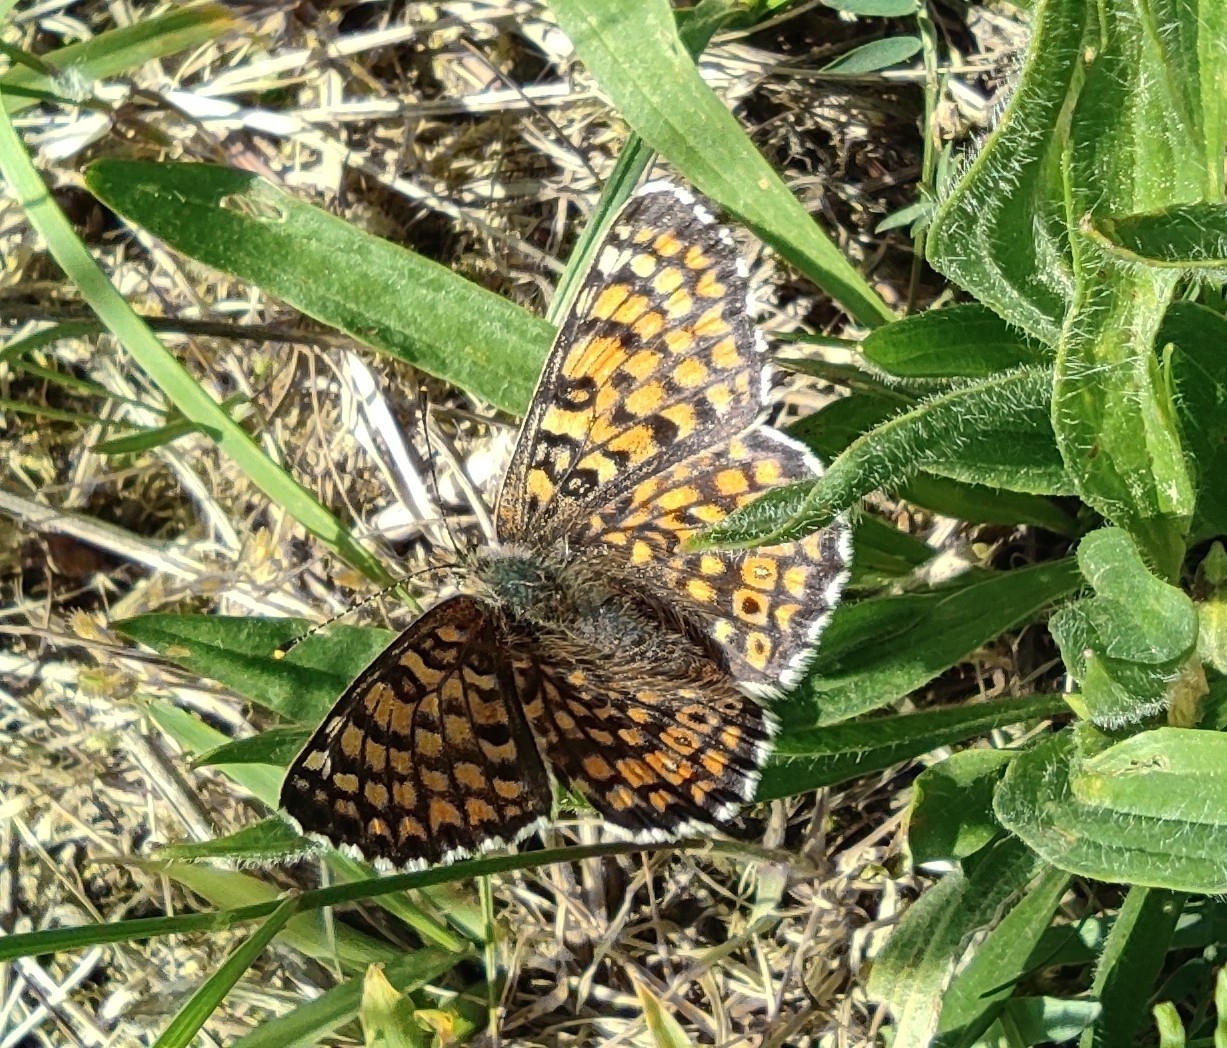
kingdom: Animalia
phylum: Arthropoda
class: Insecta
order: Lepidoptera
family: Nymphalidae
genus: Melitaea
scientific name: Melitaea cinxia
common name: Glanville fritillary
